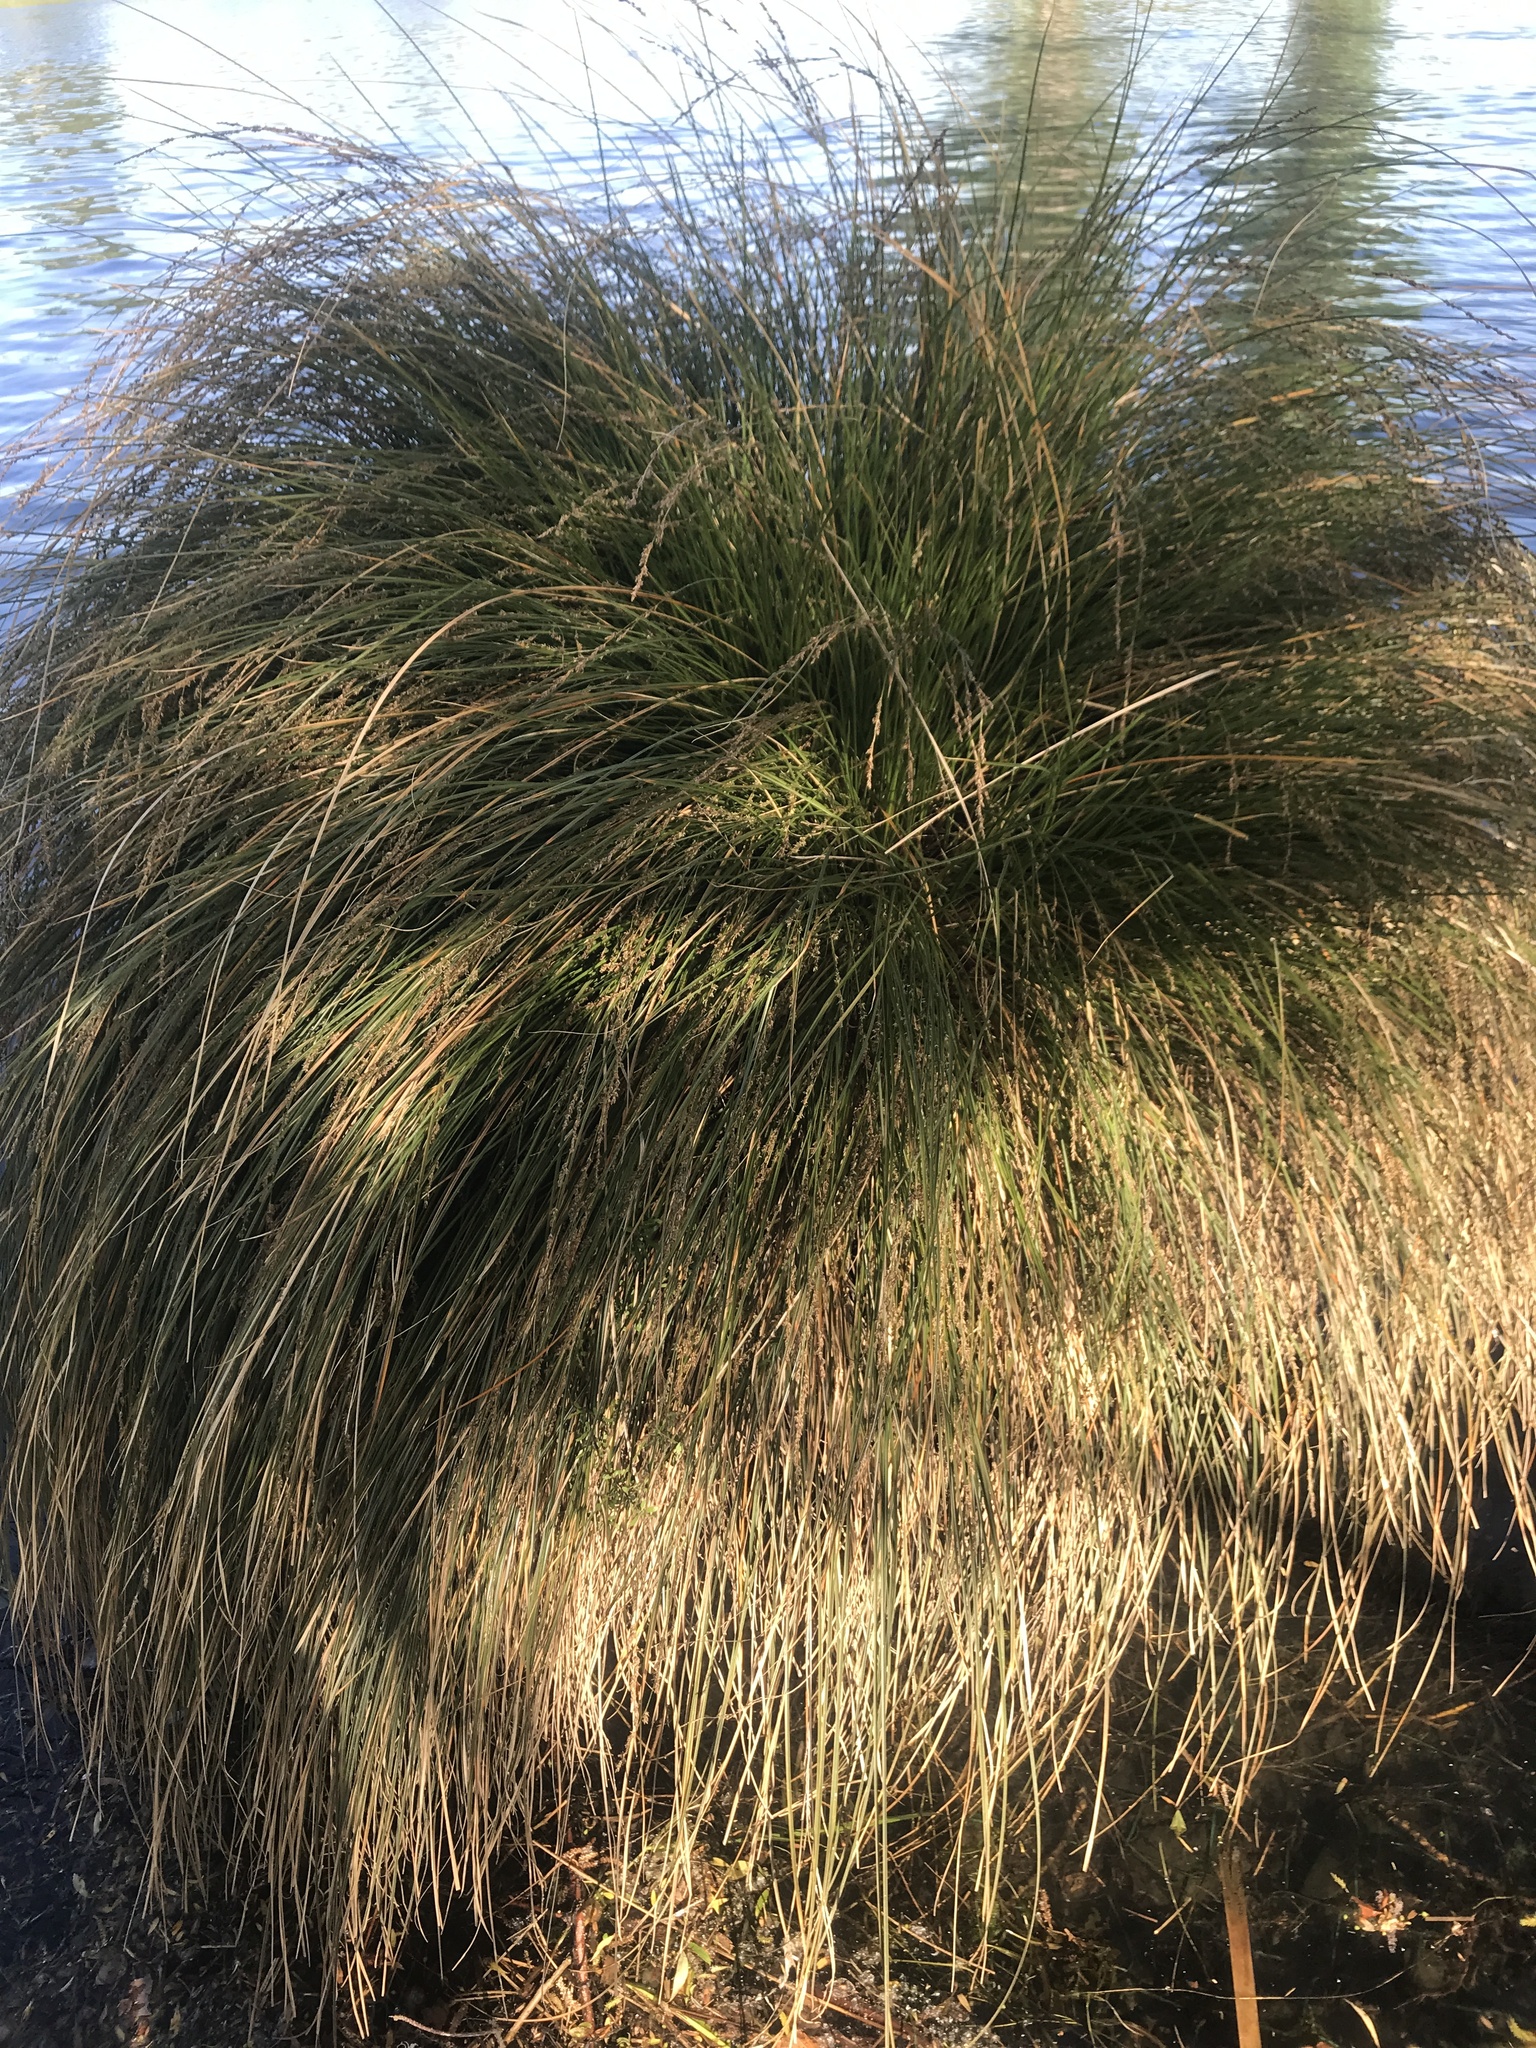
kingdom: Plantae
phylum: Tracheophyta
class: Liliopsida
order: Poales
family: Cyperaceae
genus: Carex
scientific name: Carex secta
